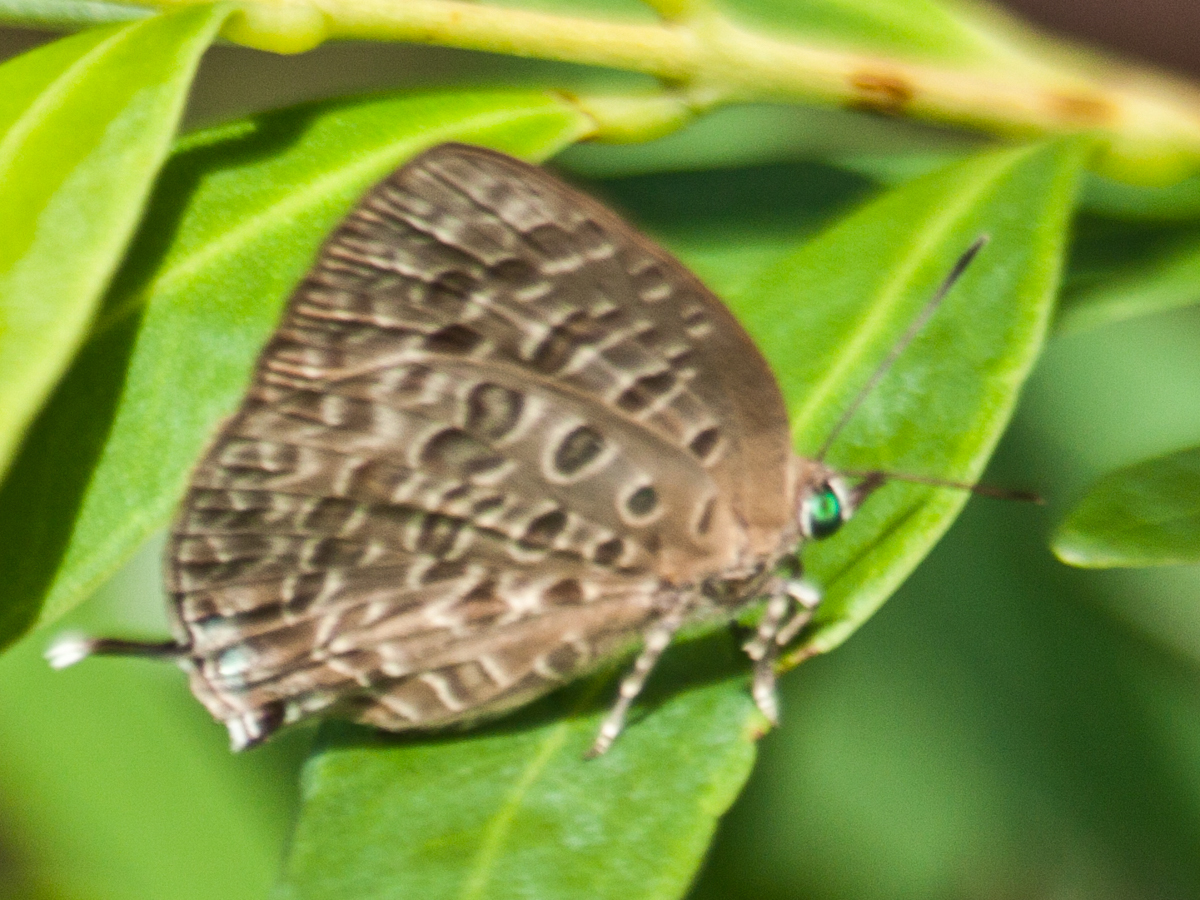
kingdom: Animalia
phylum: Arthropoda
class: Insecta
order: Lepidoptera
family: Lycaenidae
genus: Arhopala
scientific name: Arhopala alitaeus
